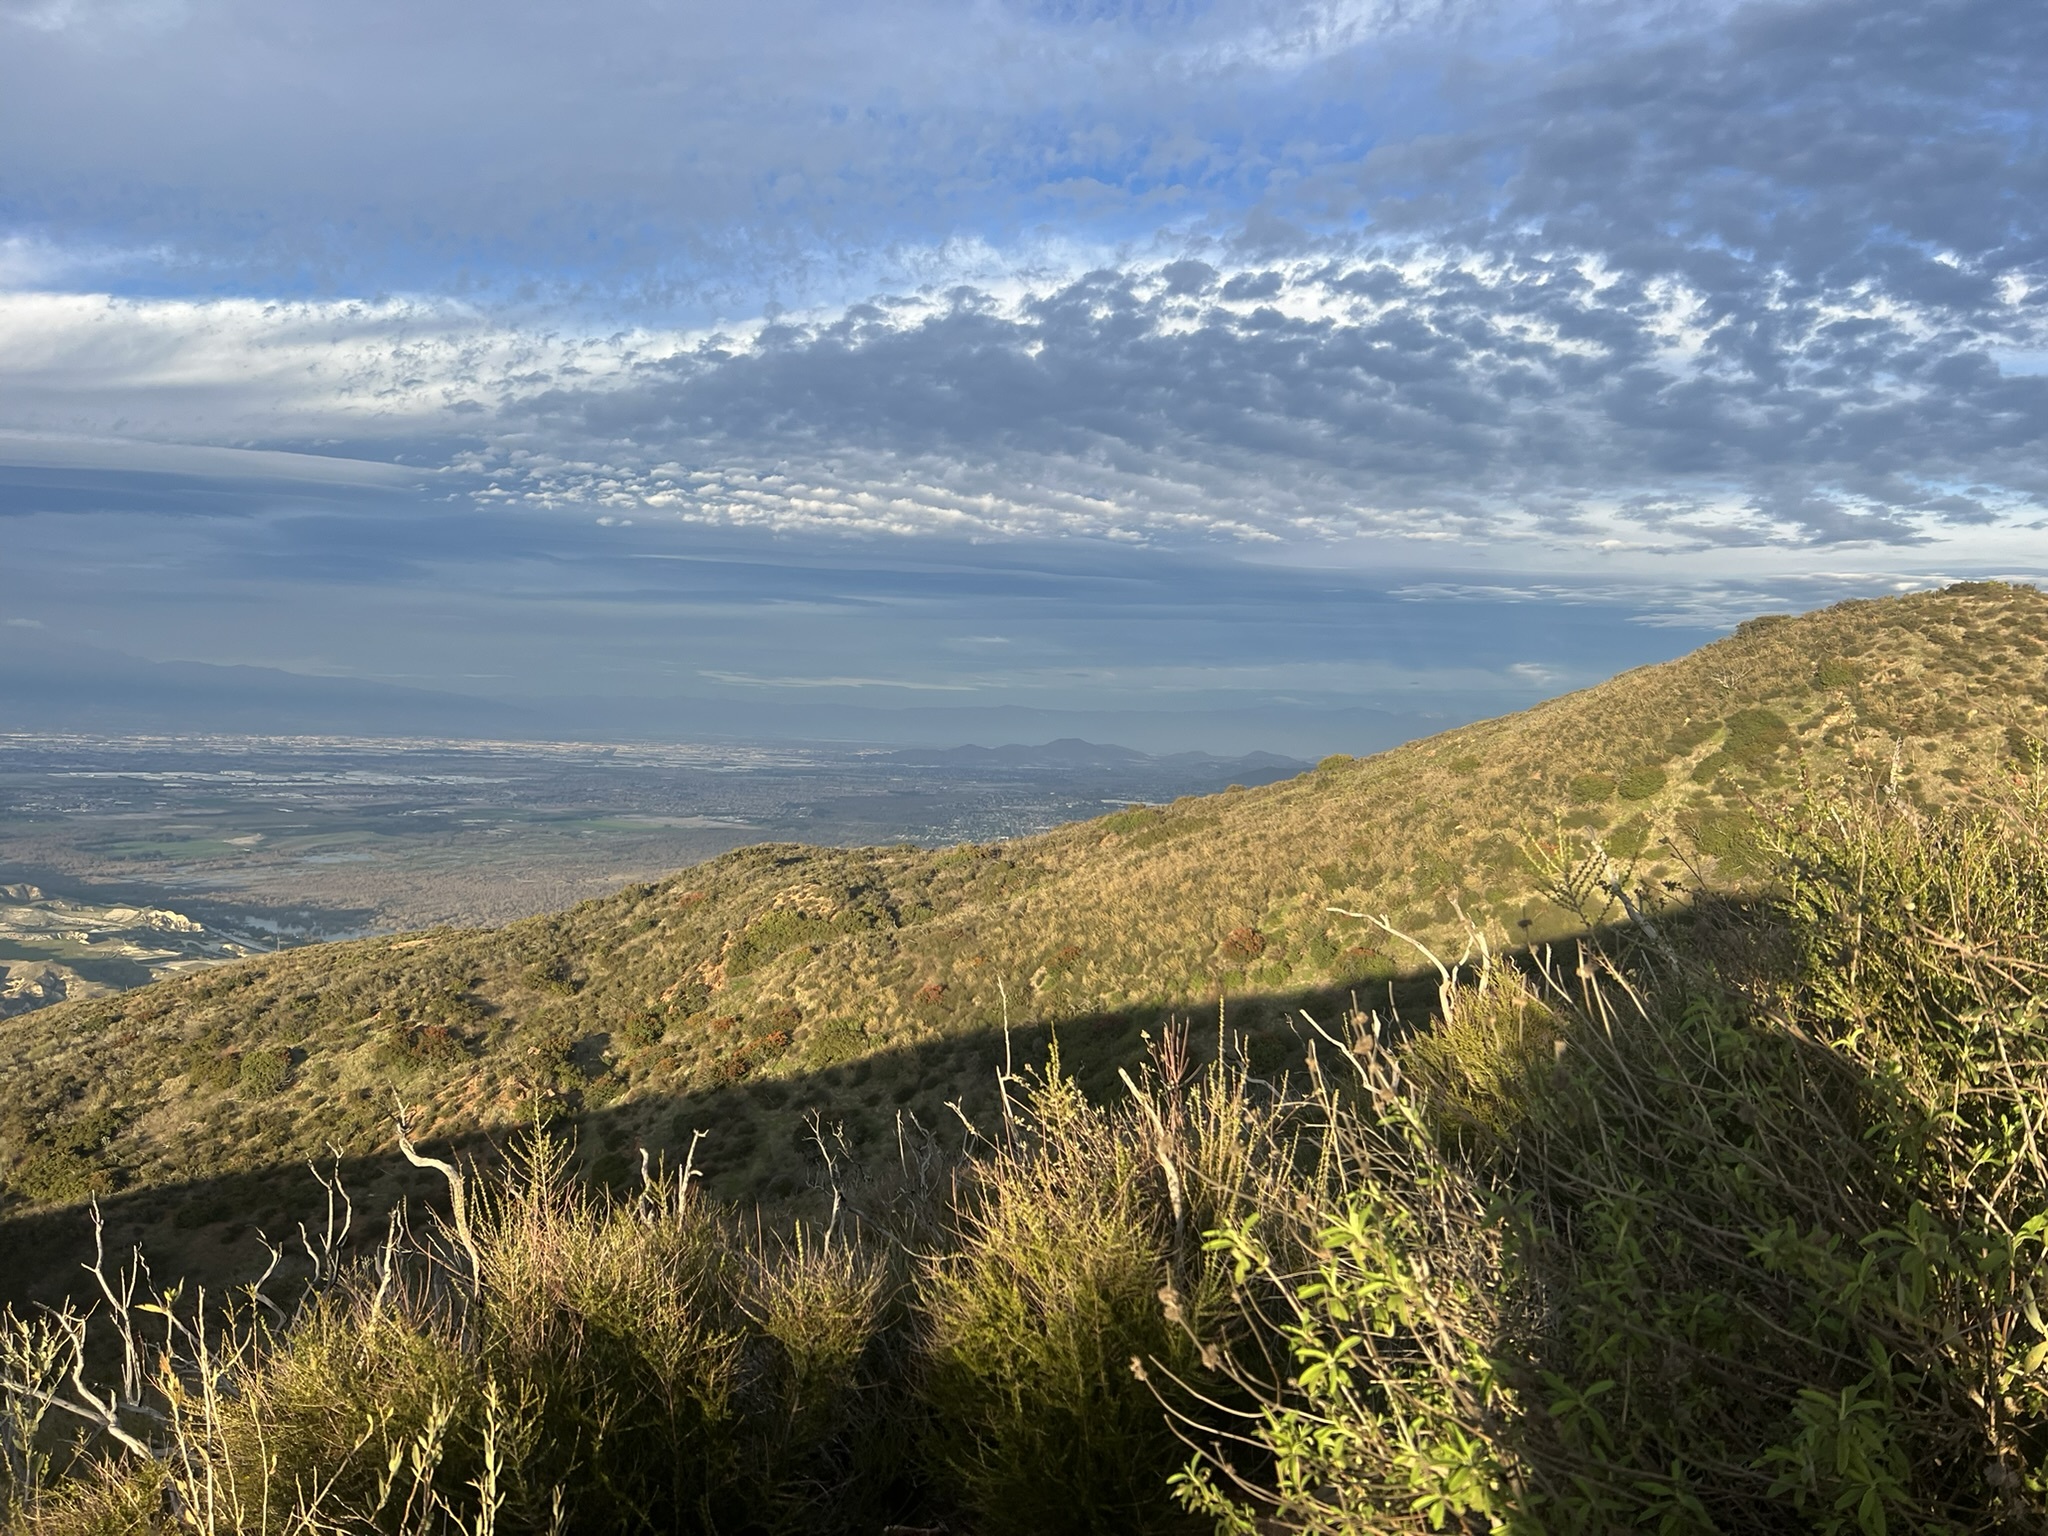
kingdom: Plantae
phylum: Tracheophyta
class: Magnoliopsida
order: Ranunculales
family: Papaveraceae
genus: Dendromecon
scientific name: Dendromecon rigida
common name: Tree poppy
